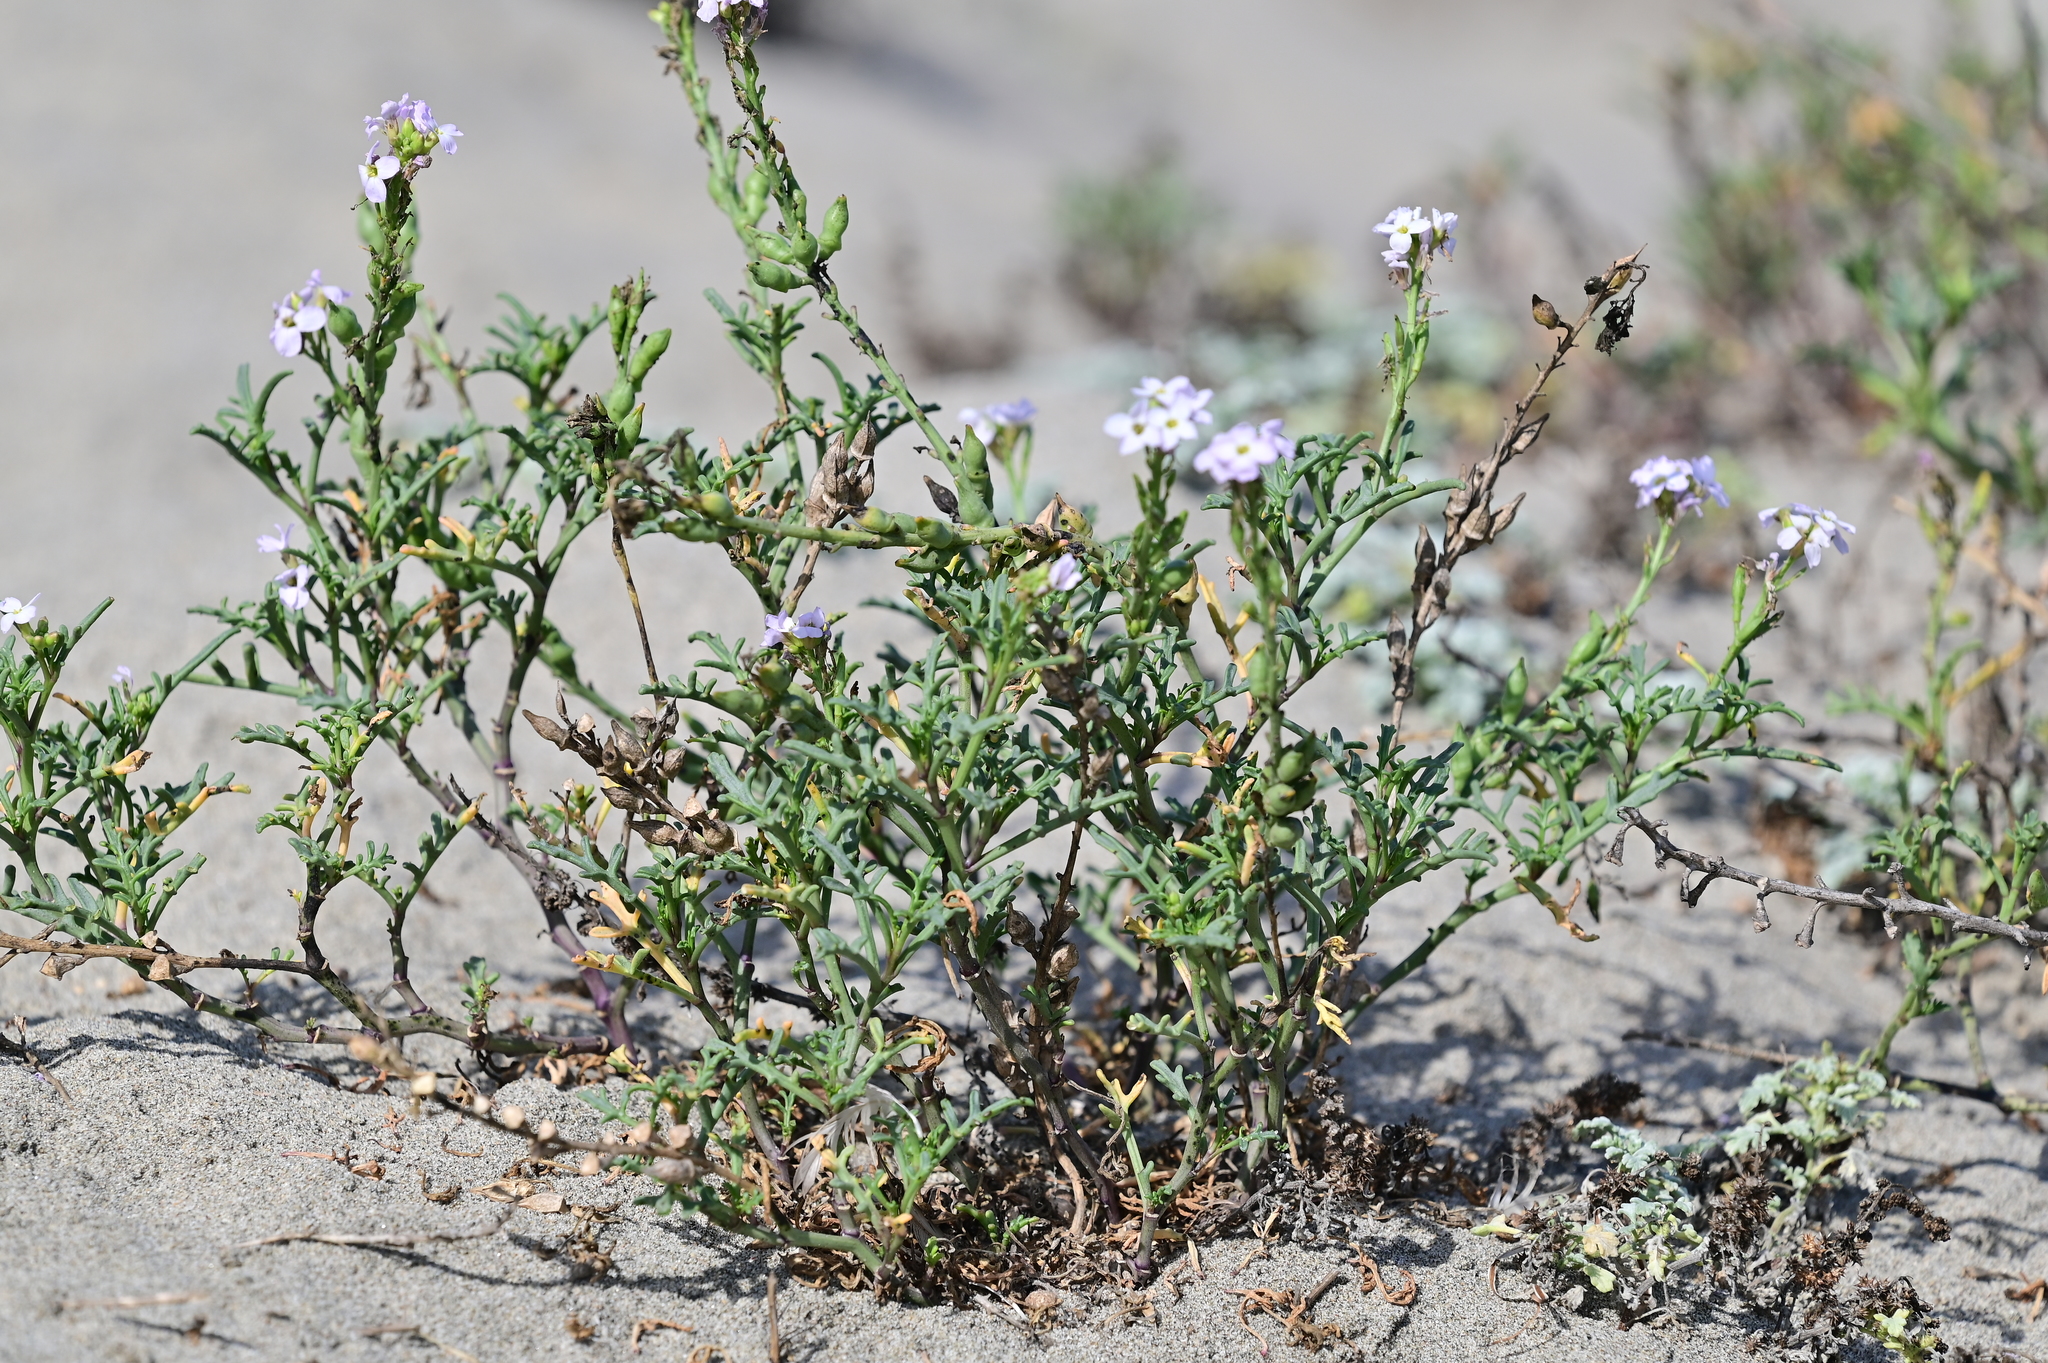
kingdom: Plantae
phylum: Tracheophyta
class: Magnoliopsida
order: Brassicales
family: Brassicaceae
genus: Cakile
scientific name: Cakile maritima
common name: Sea rocket
